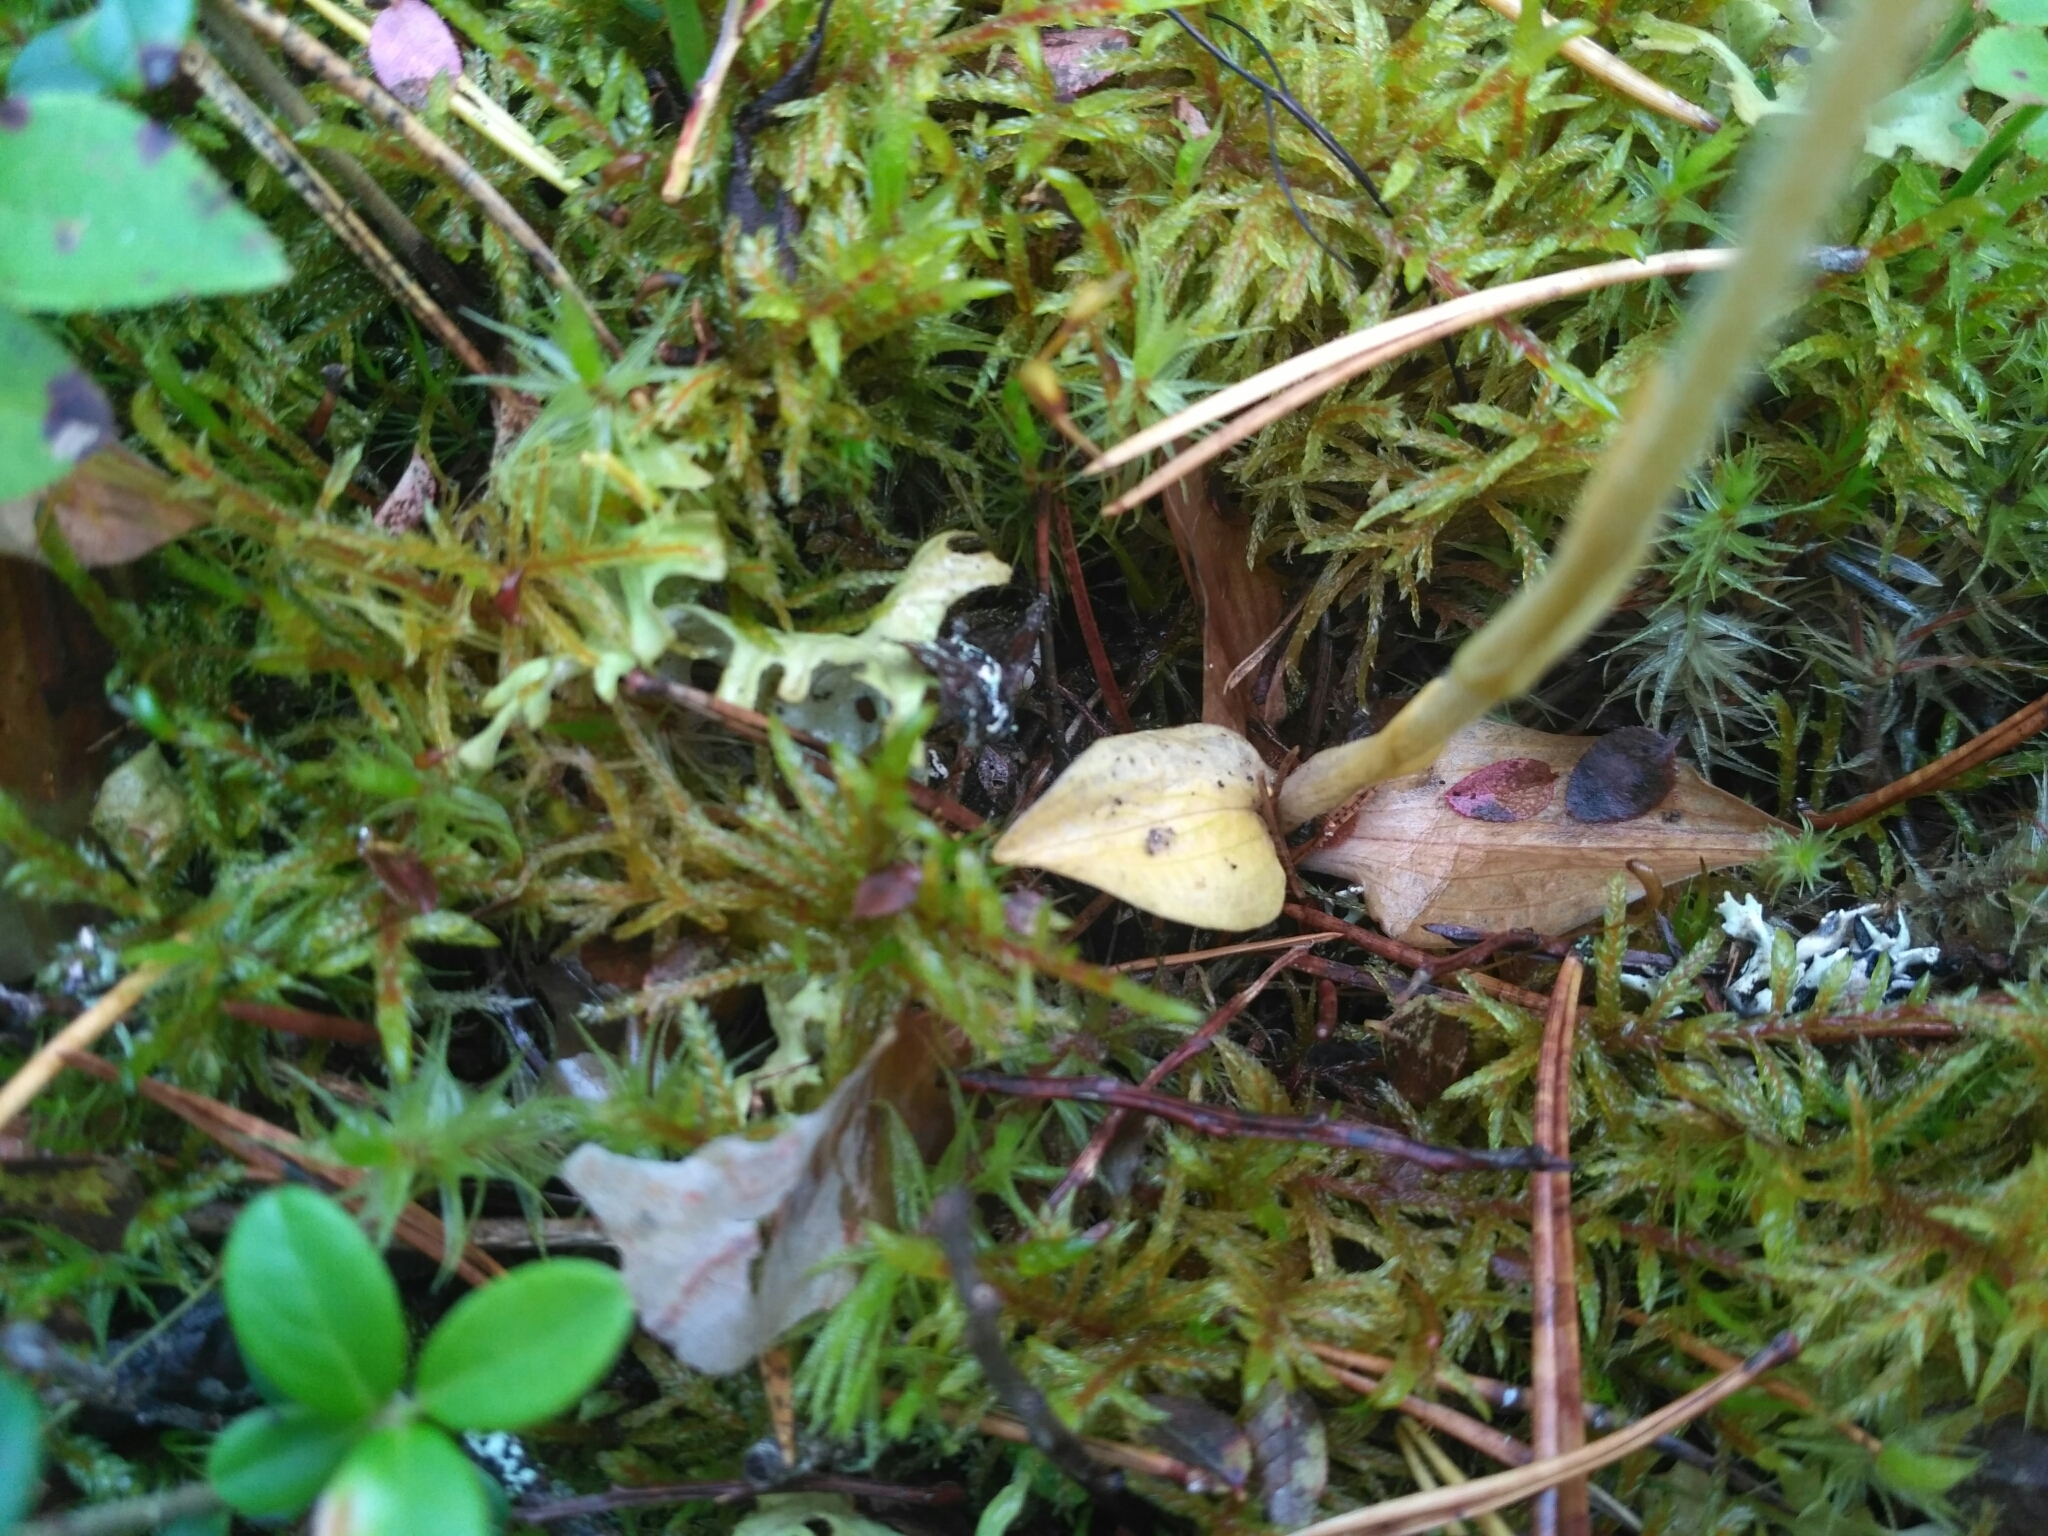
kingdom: Plantae
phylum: Tracheophyta
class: Liliopsida
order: Asparagales
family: Orchidaceae
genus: Goodyera
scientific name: Goodyera repens
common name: Creeping lady's-tresses
